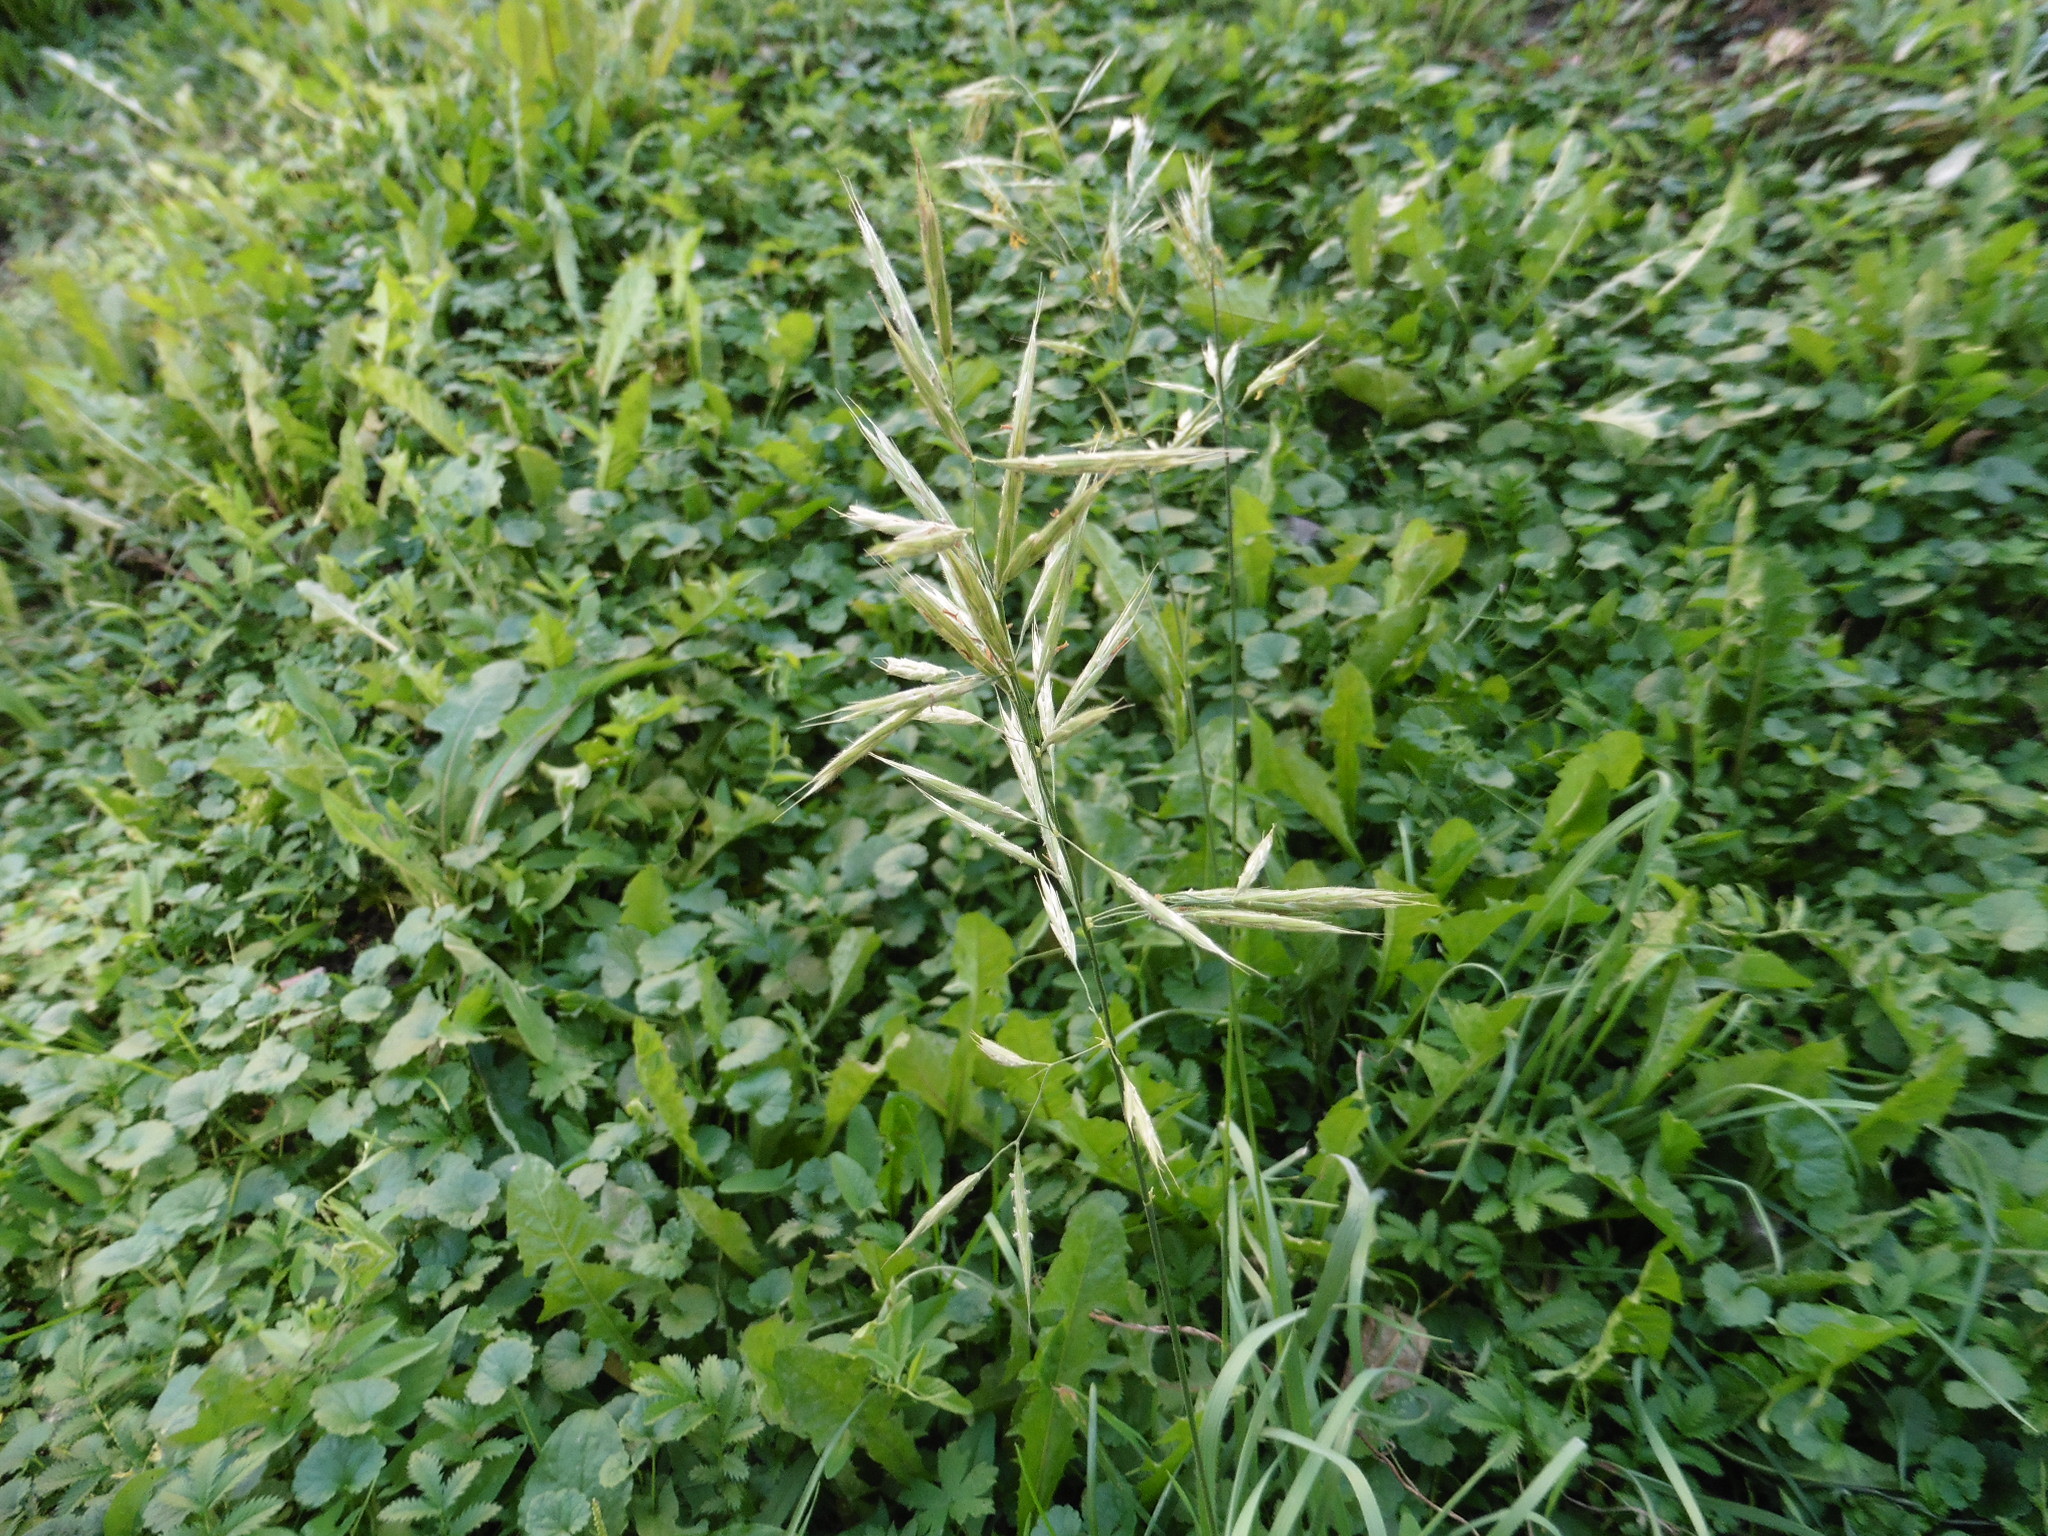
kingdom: Plantae
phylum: Tracheophyta
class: Liliopsida
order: Poales
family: Poaceae
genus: Bromus
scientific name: Bromus riparius
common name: Meadow brome
